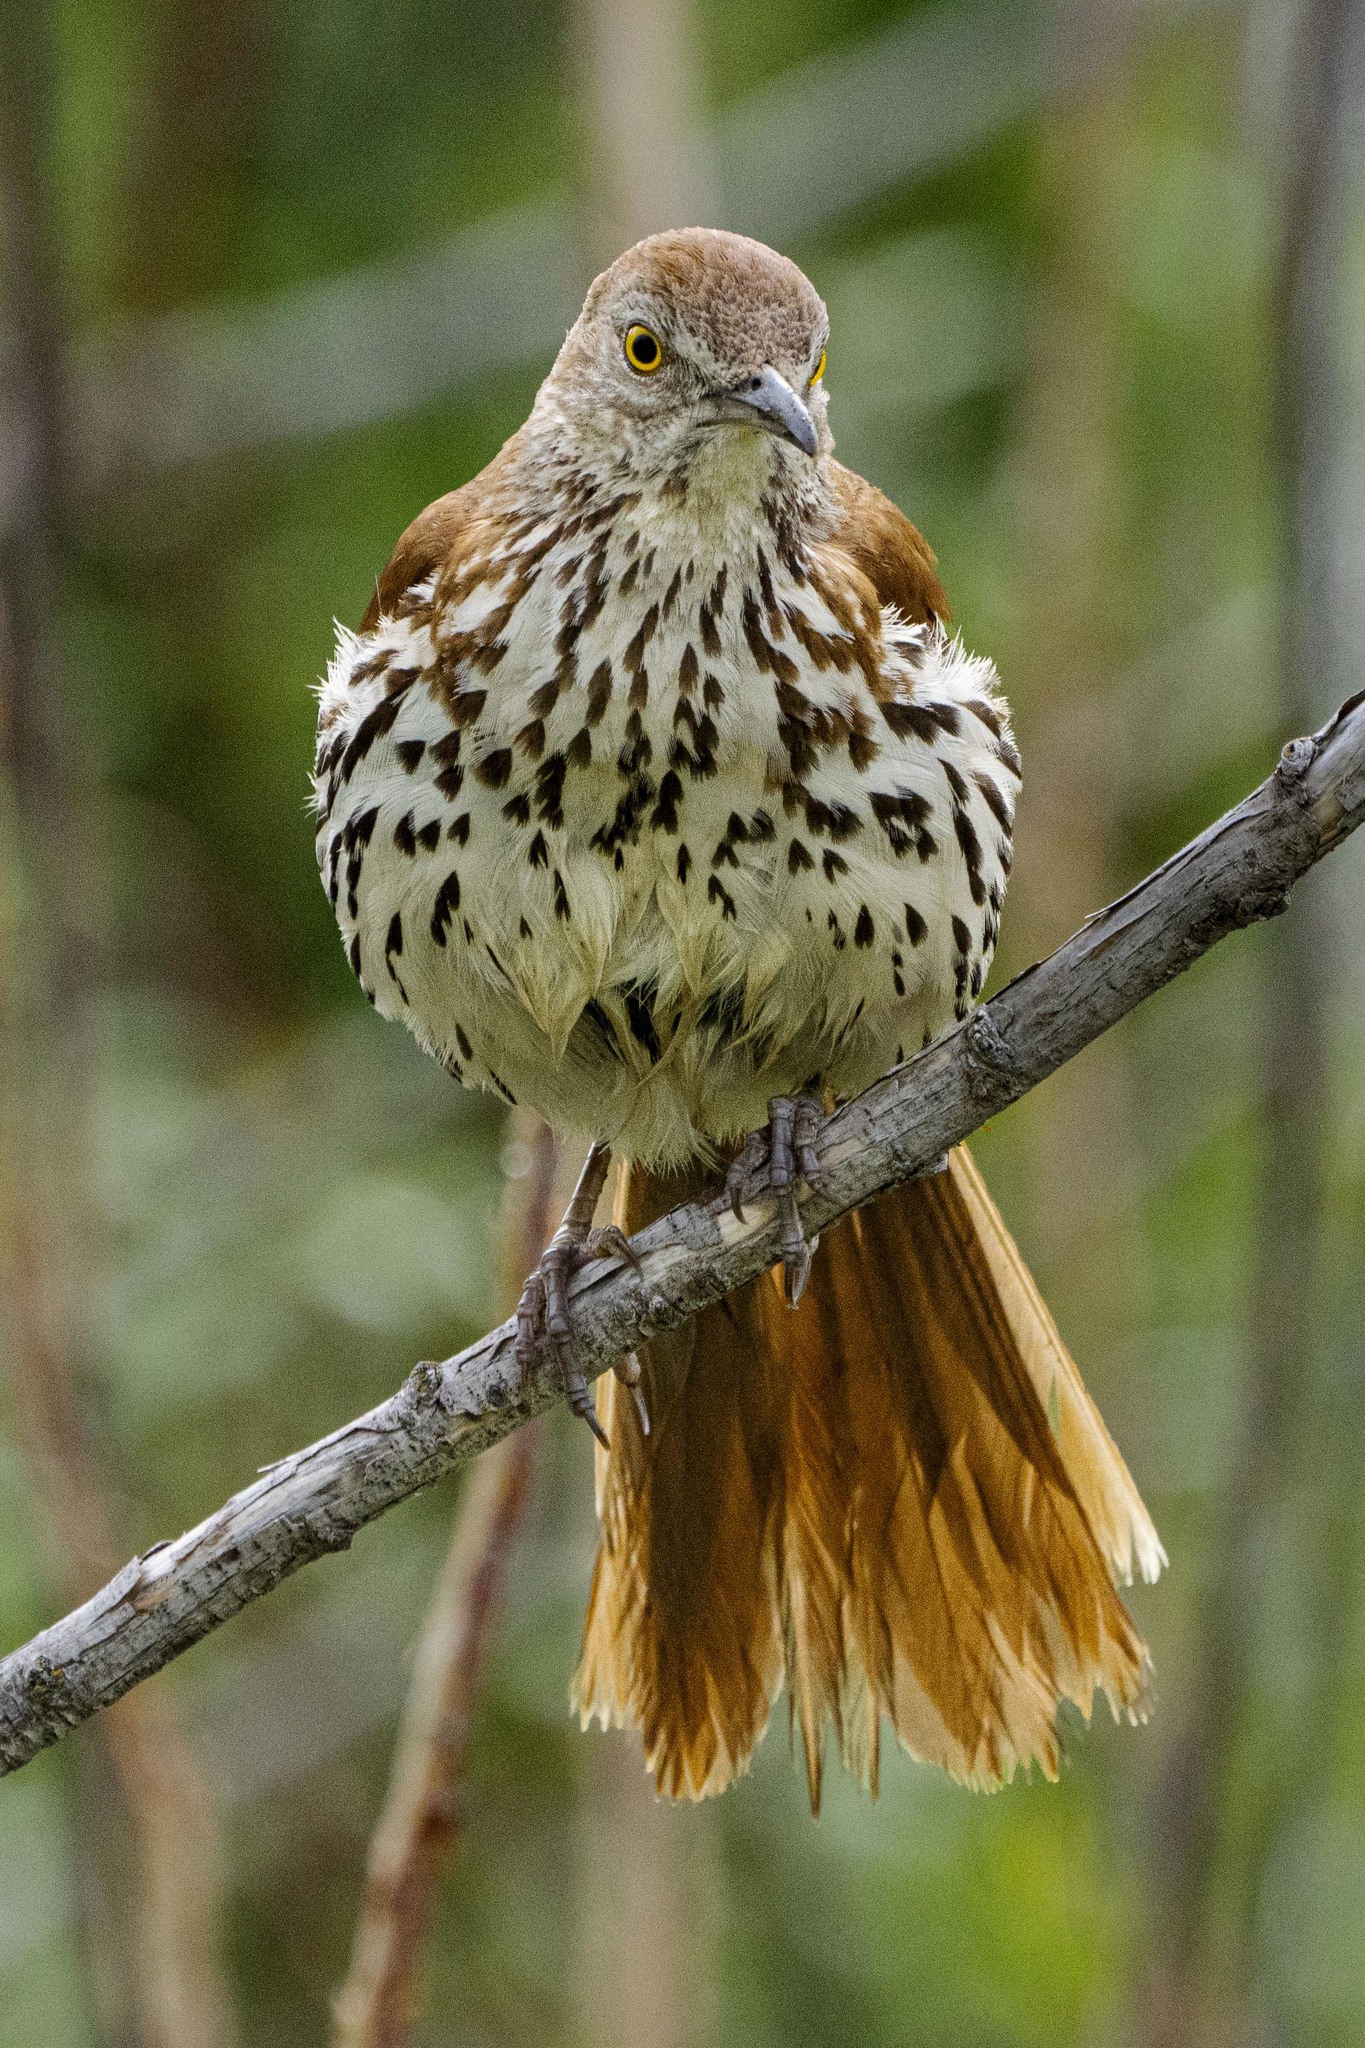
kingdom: Animalia
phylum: Chordata
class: Aves
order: Passeriformes
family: Mimidae
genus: Toxostoma
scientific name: Toxostoma rufum
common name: Brown thrasher
